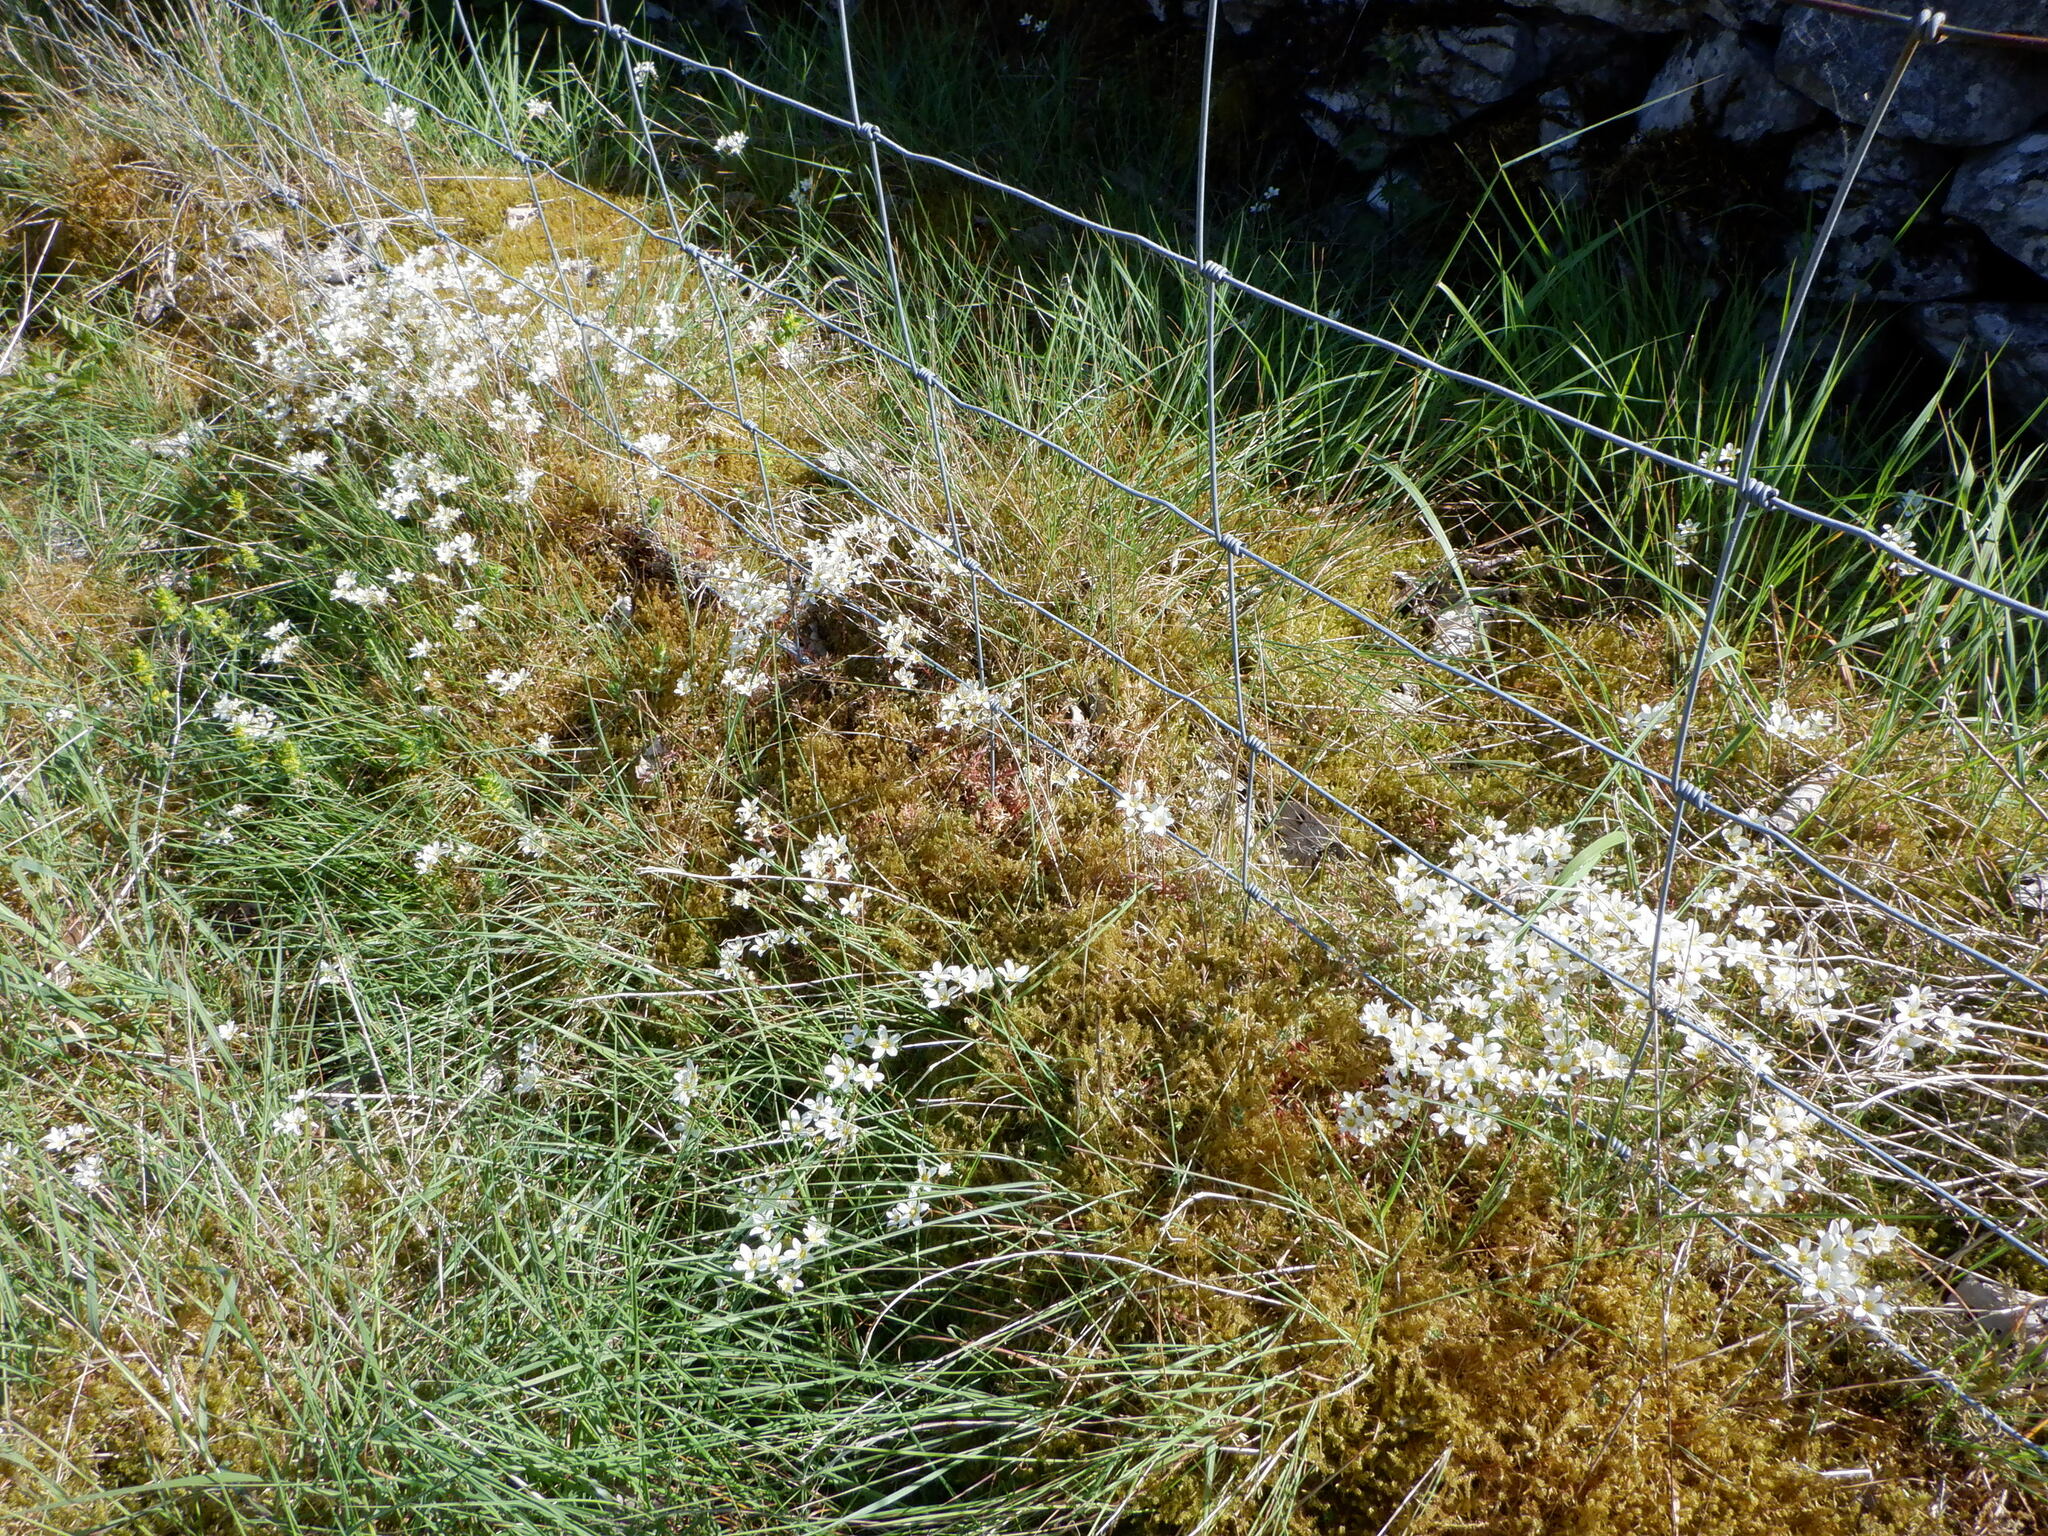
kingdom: Plantae
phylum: Tracheophyta
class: Magnoliopsida
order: Saxifragales
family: Saxifragaceae
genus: Saxifraga
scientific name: Saxifraga hypnoides
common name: Mossy saxifrage
